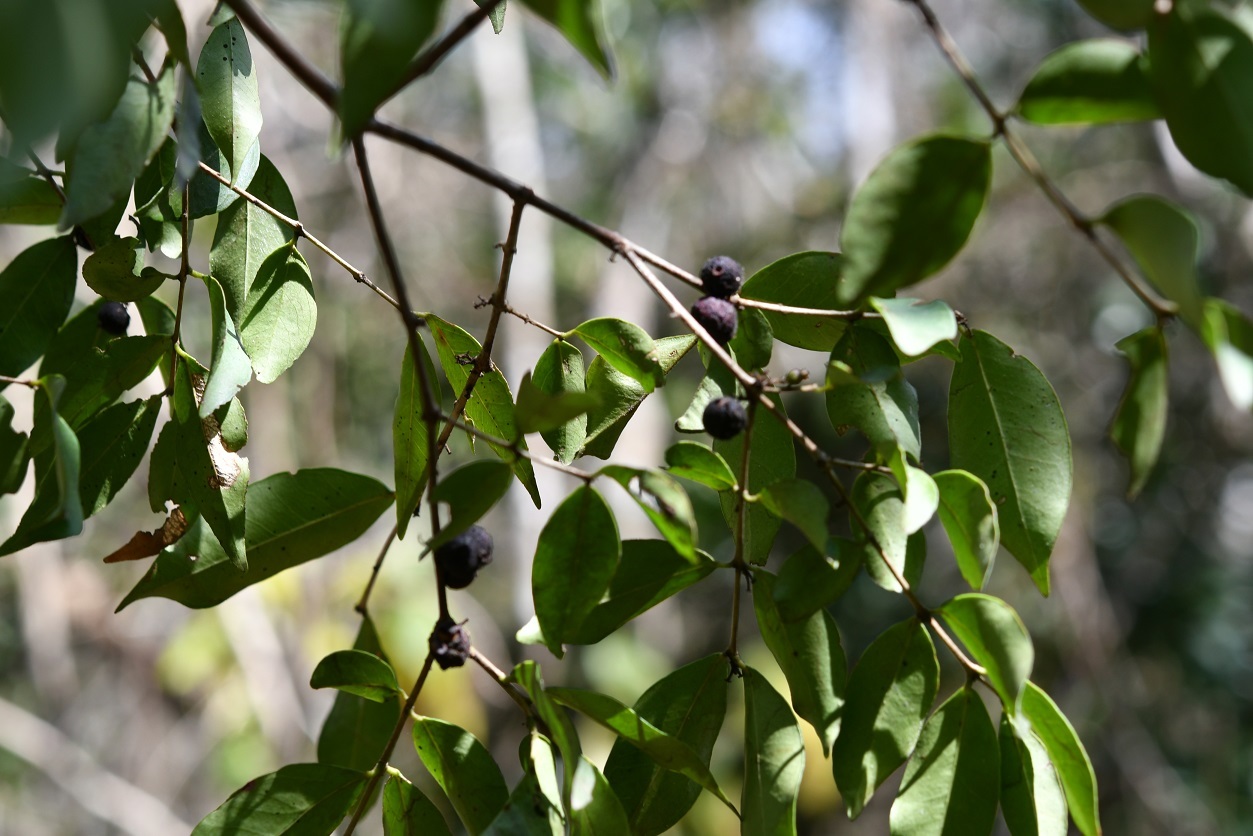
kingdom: Plantae
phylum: Tracheophyta
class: Magnoliopsida
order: Myrtales
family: Myrtaceae
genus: Eugenia
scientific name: Eugenia capulioides
